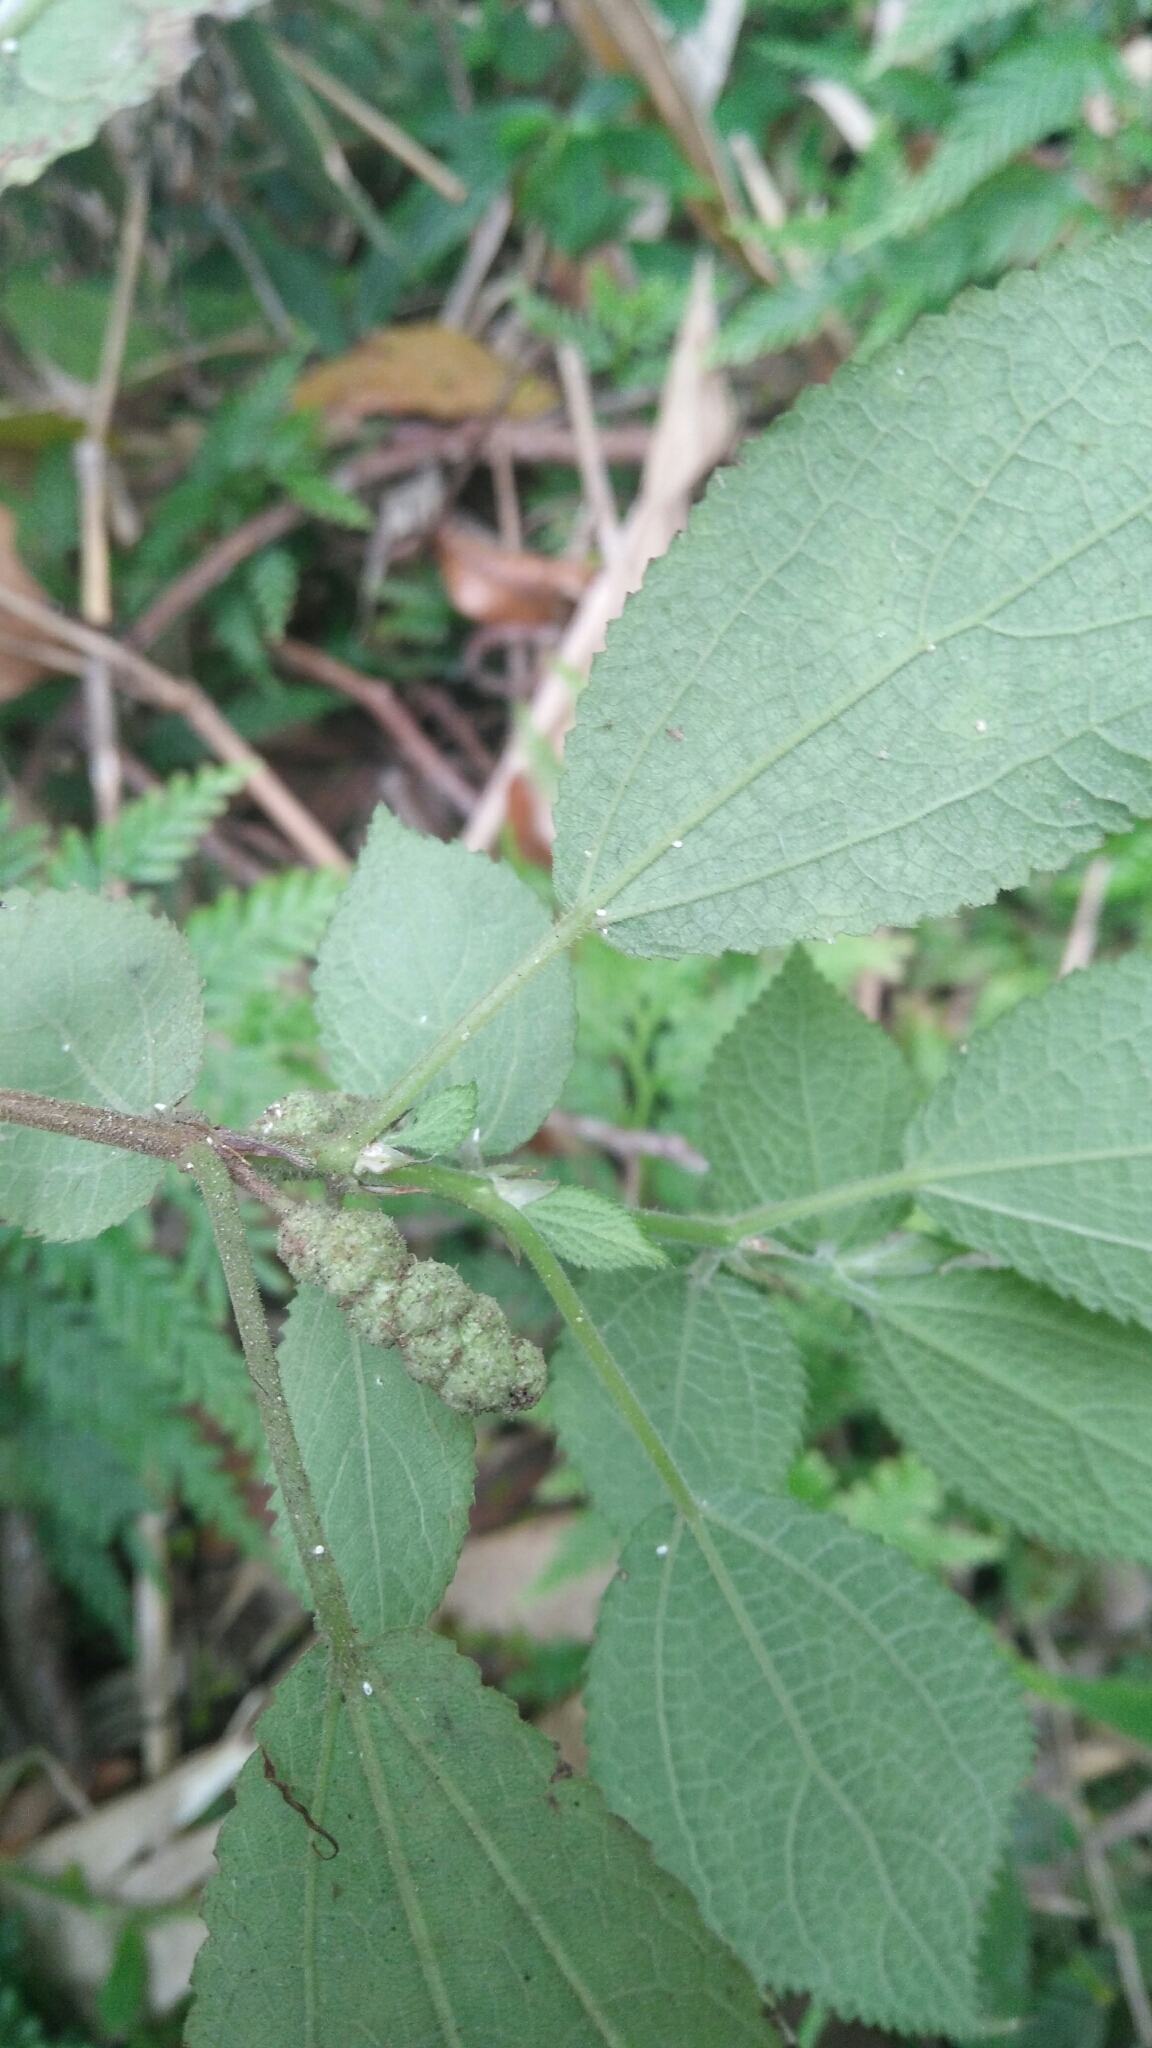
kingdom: Plantae
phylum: Tracheophyta
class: Magnoliopsida
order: Rosales
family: Urticaceae
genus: Boehmeria
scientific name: Boehmeria pilosiuscula
